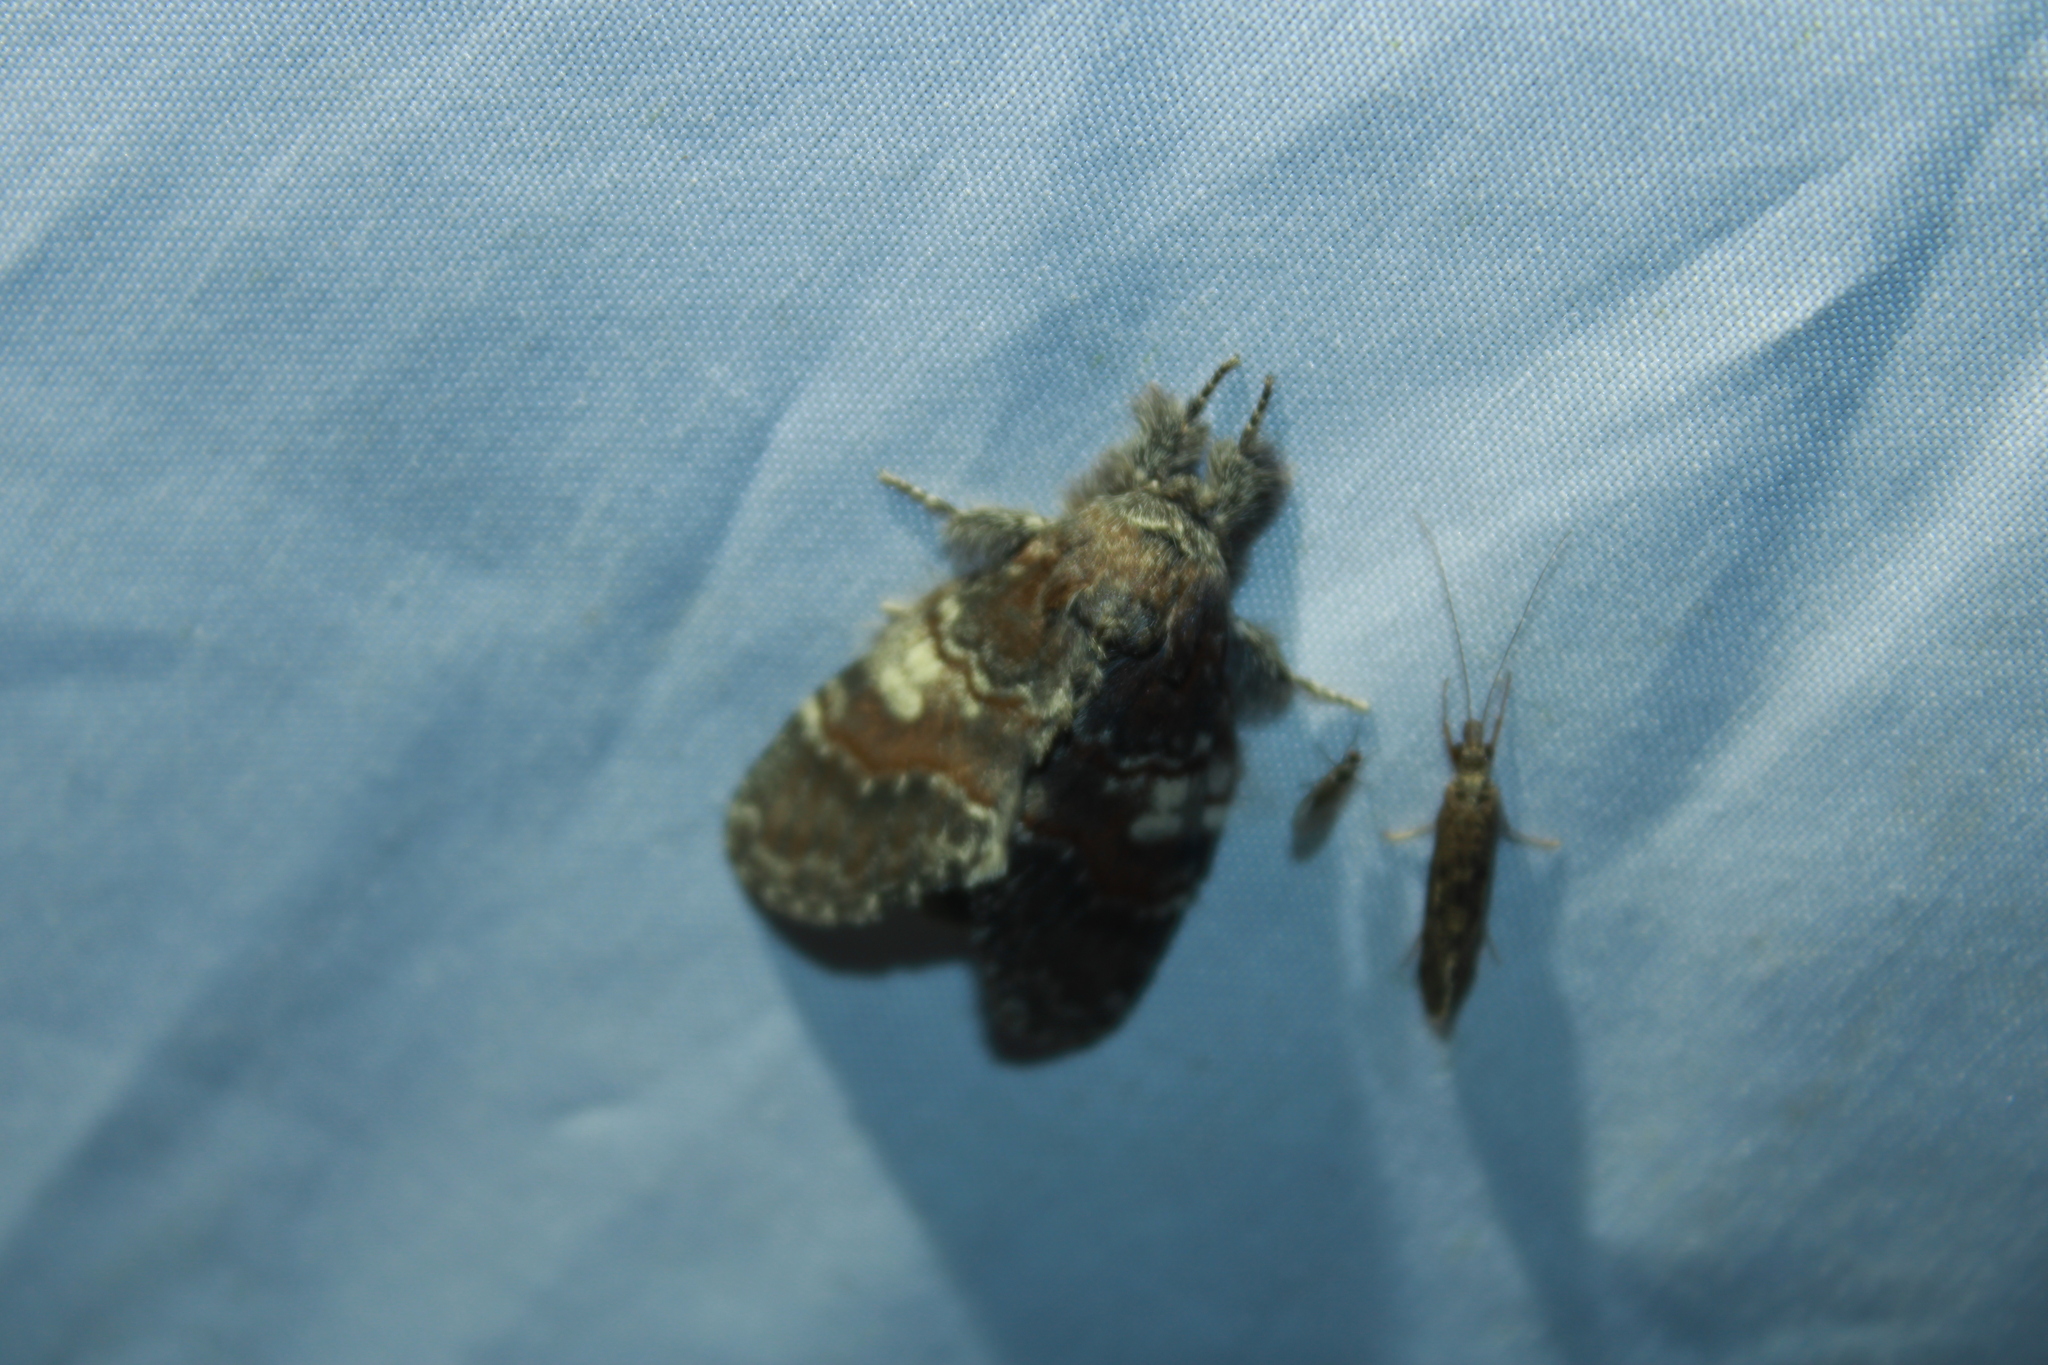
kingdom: Animalia
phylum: Arthropoda
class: Insecta
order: Lepidoptera
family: Notodontidae
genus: Peridea
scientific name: Peridea ferruginea
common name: Chocolate prominent
